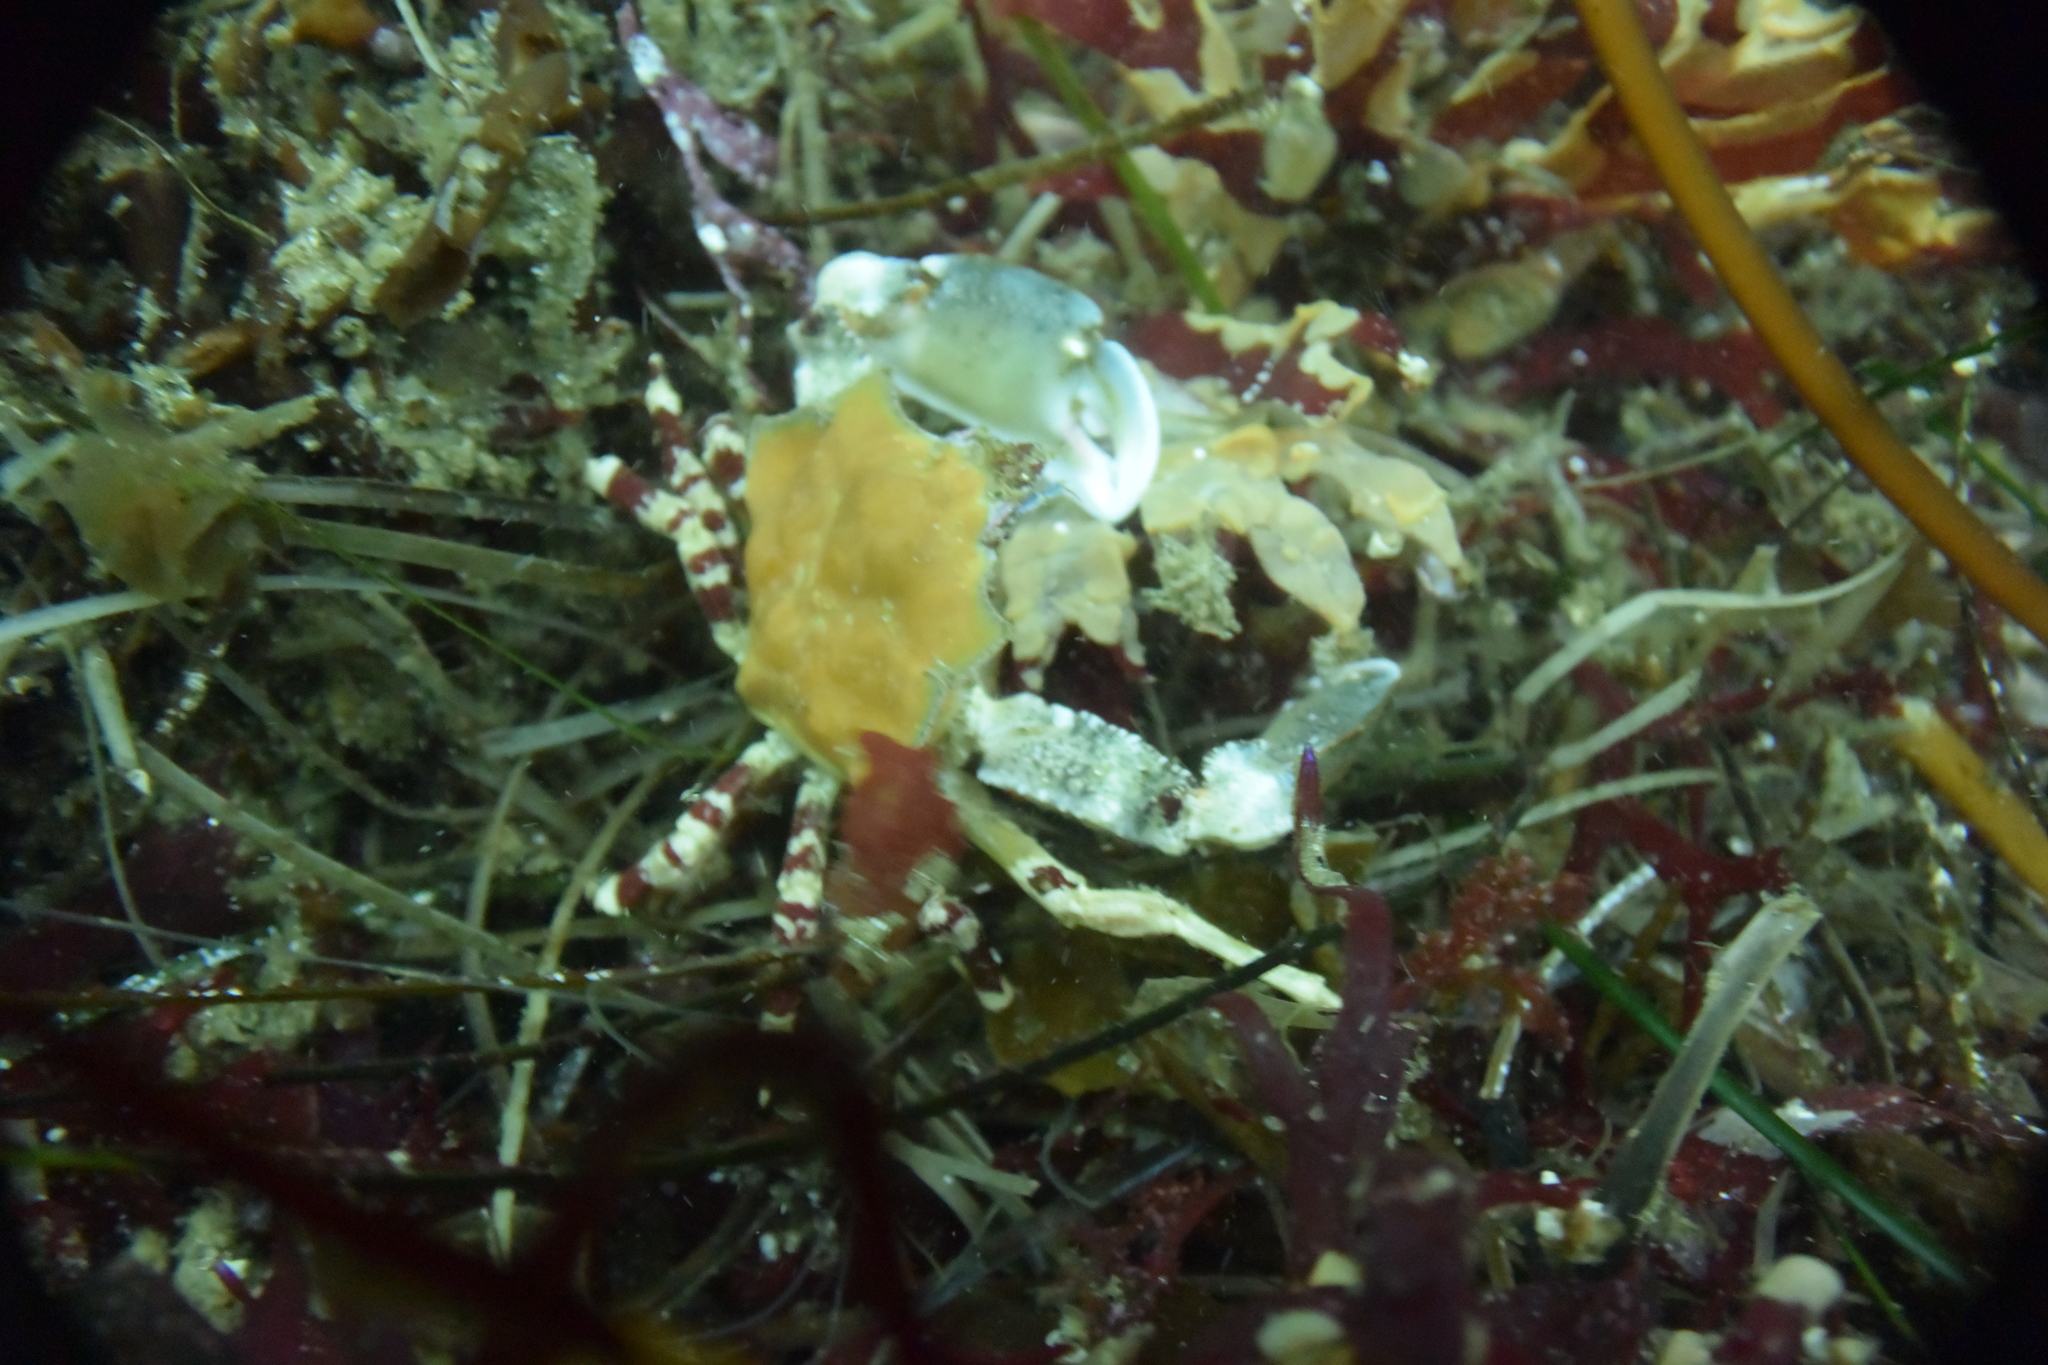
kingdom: Animalia
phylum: Arthropoda
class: Malacostraca
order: Decapoda
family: Epialtidae
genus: Pugettia
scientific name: Pugettia foliata
